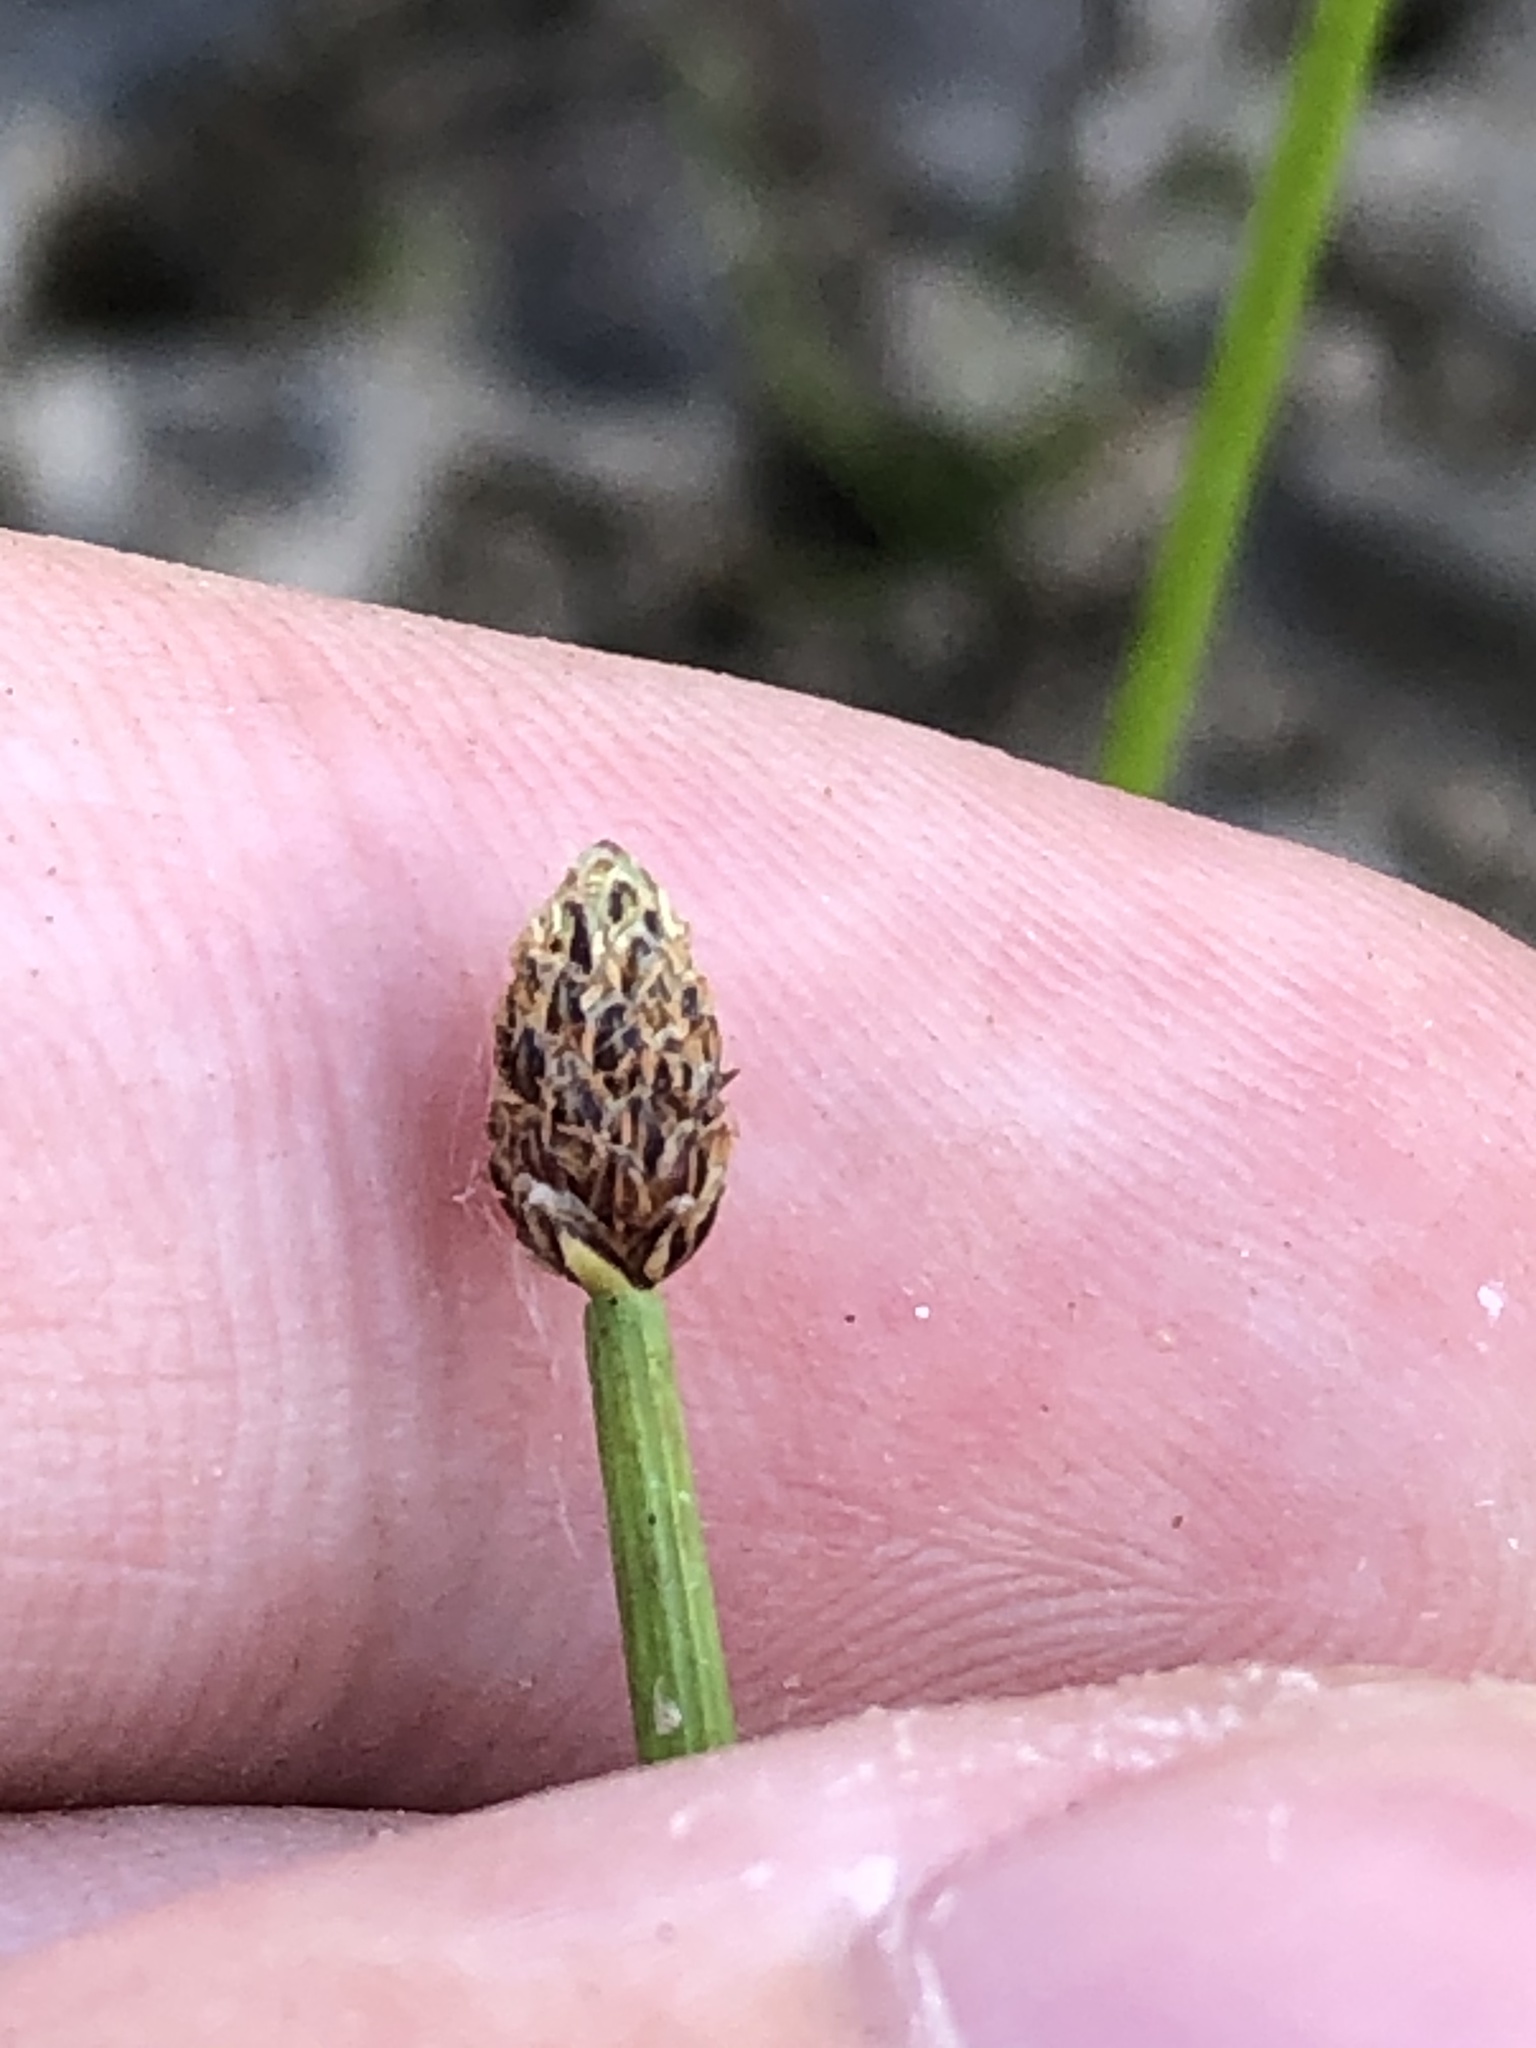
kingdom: Plantae
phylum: Tracheophyta
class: Liliopsida
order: Poales
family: Cyperaceae
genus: Eleocharis
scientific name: Eleocharis ovata
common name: Oval spike-rush
